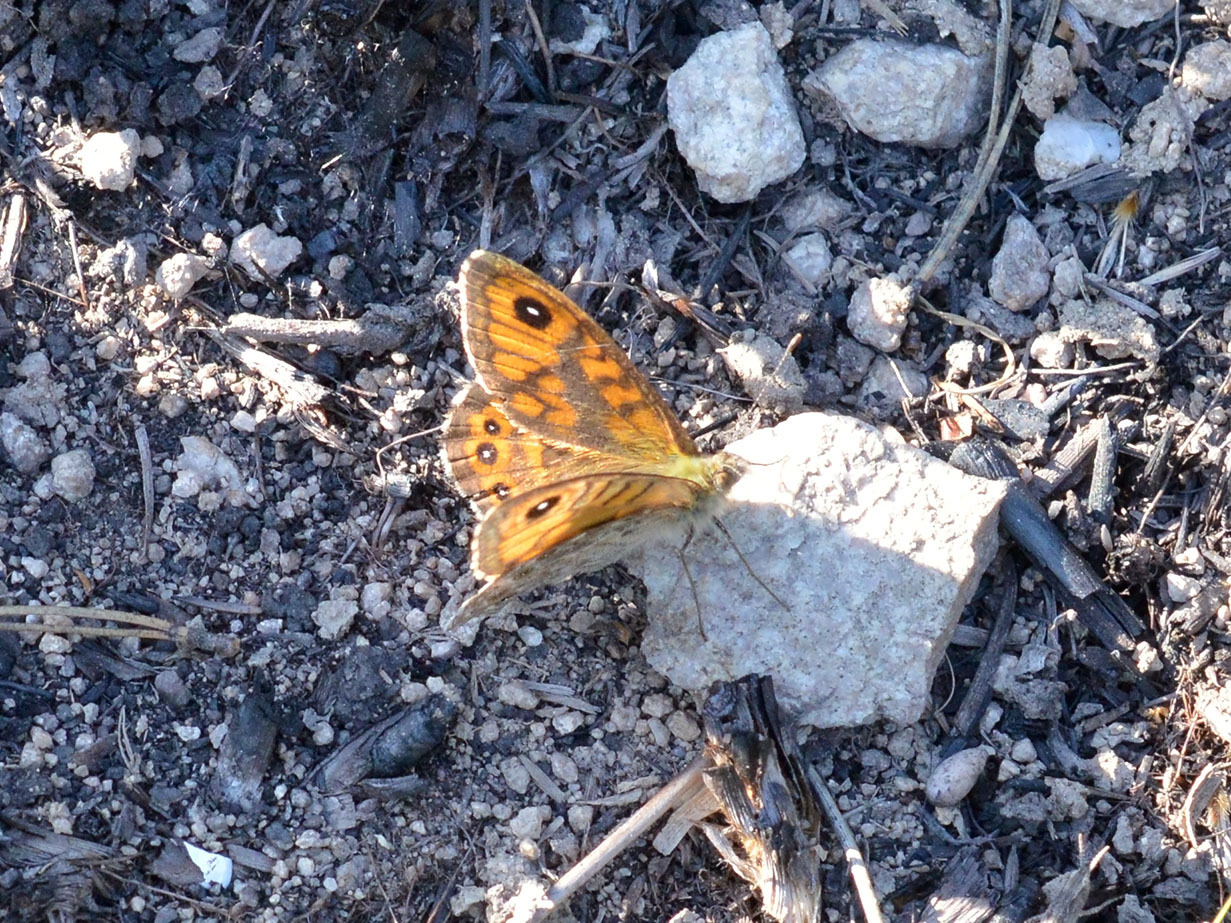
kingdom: Animalia
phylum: Arthropoda
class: Insecta
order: Lepidoptera
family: Nymphalidae
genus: Pararge
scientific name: Pararge Lasiommata megera
